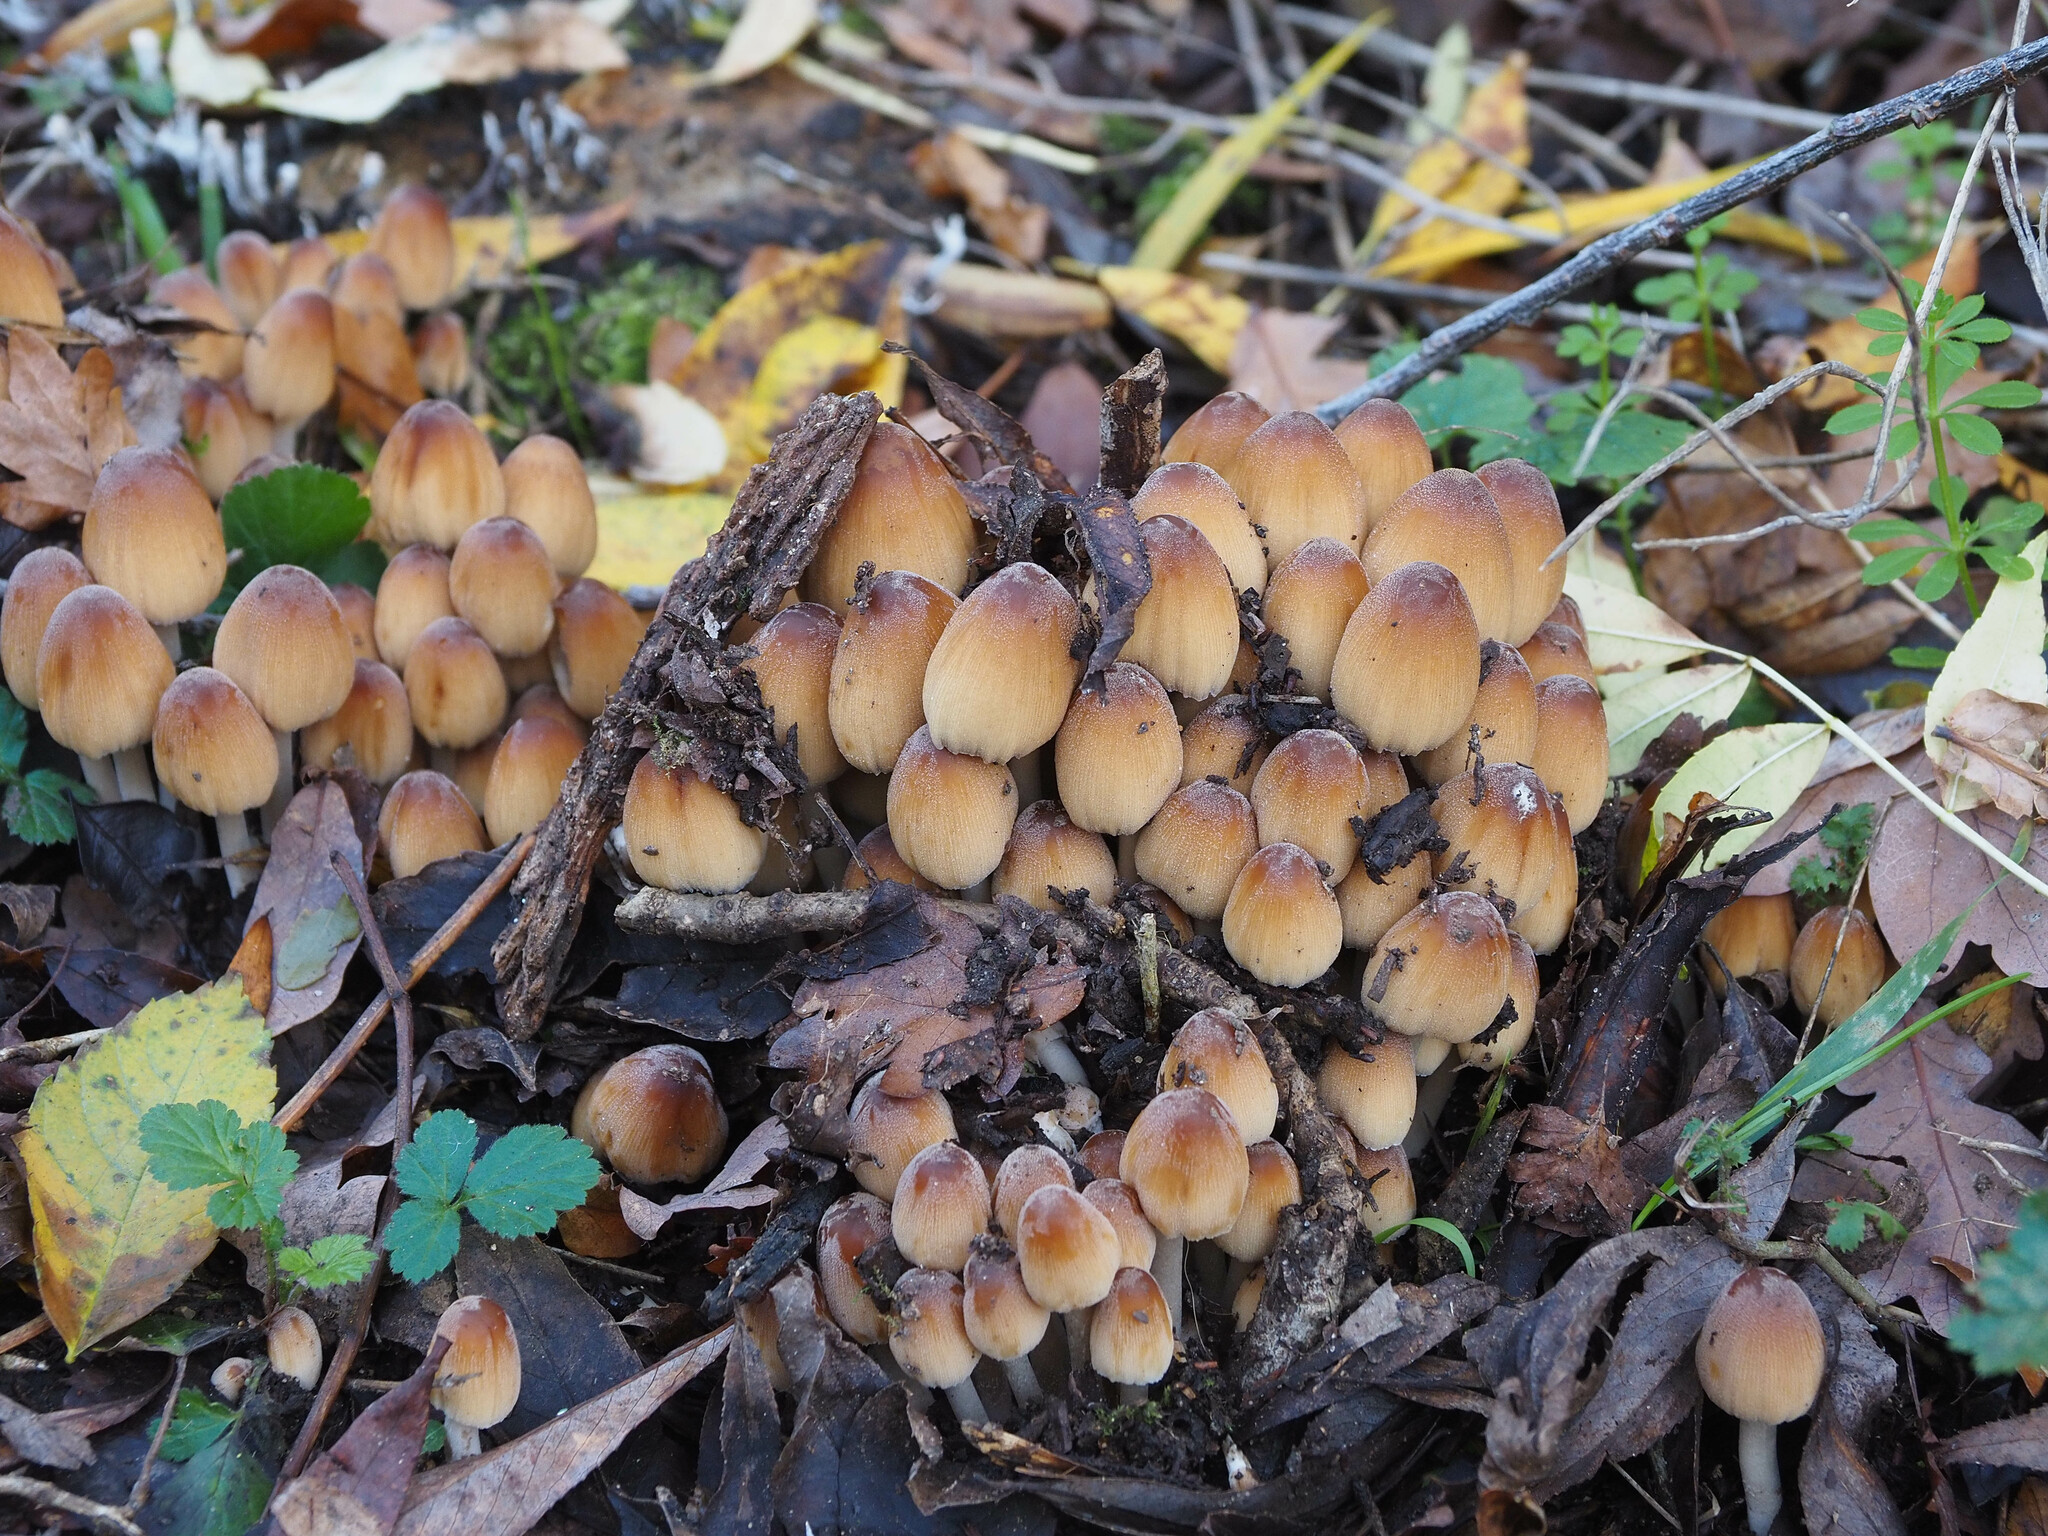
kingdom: Fungi
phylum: Basidiomycota
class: Agaricomycetes
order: Agaricales
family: Psathyrellaceae
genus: Coprinellus
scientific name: Coprinellus micaceus
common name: Glistening ink-cap
